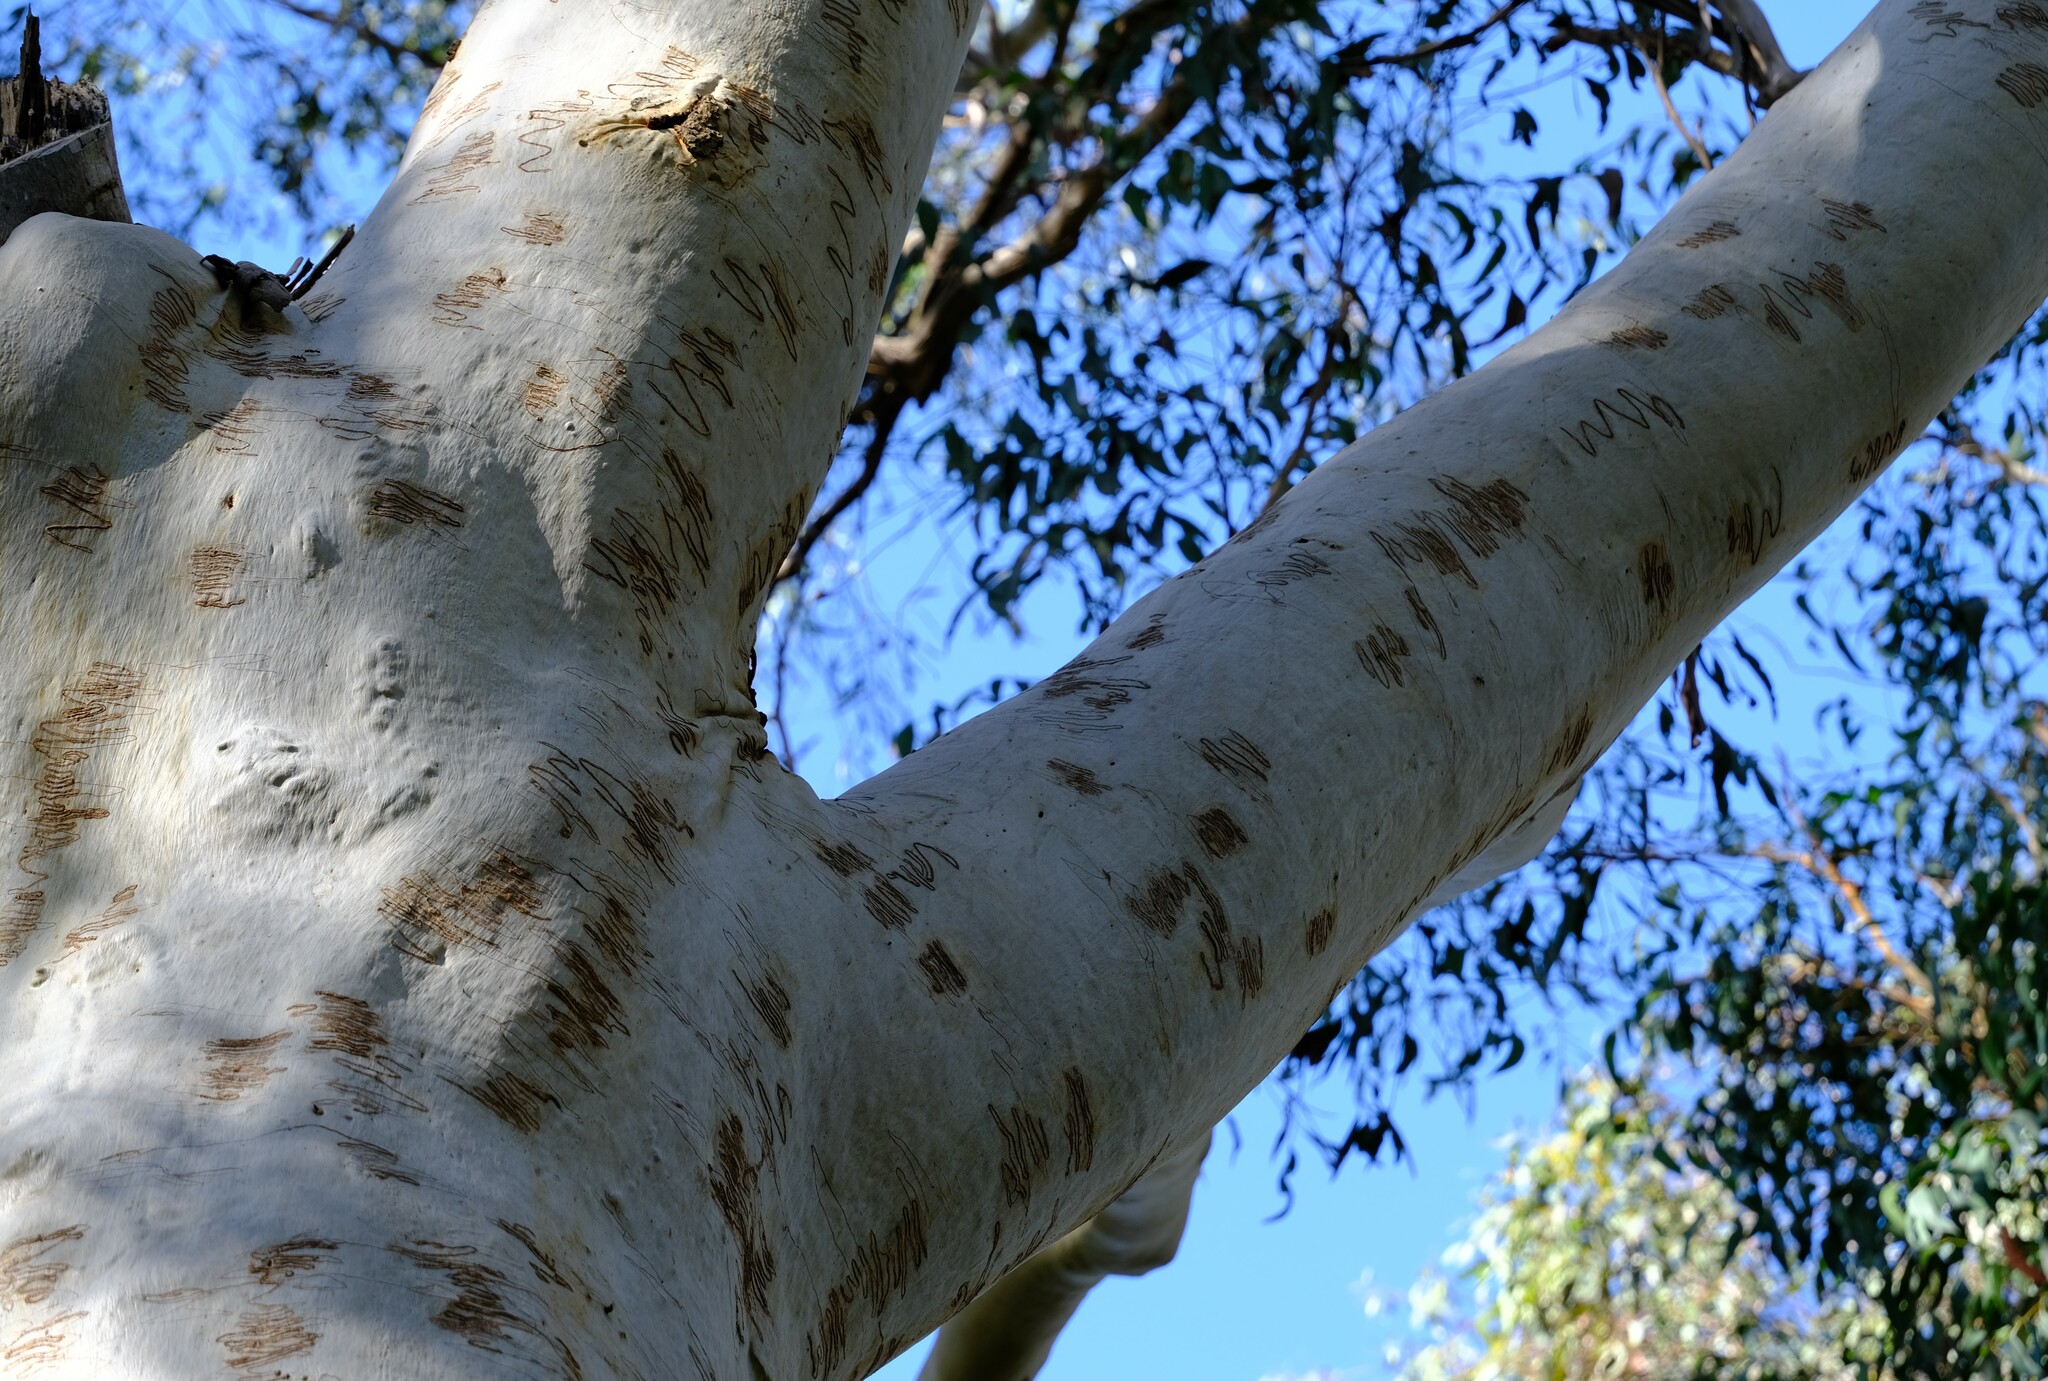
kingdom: Plantae
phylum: Tracheophyta
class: Magnoliopsida
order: Myrtales
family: Myrtaceae
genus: Eucalyptus
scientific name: Eucalyptus racemosa
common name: Scribbly gum
